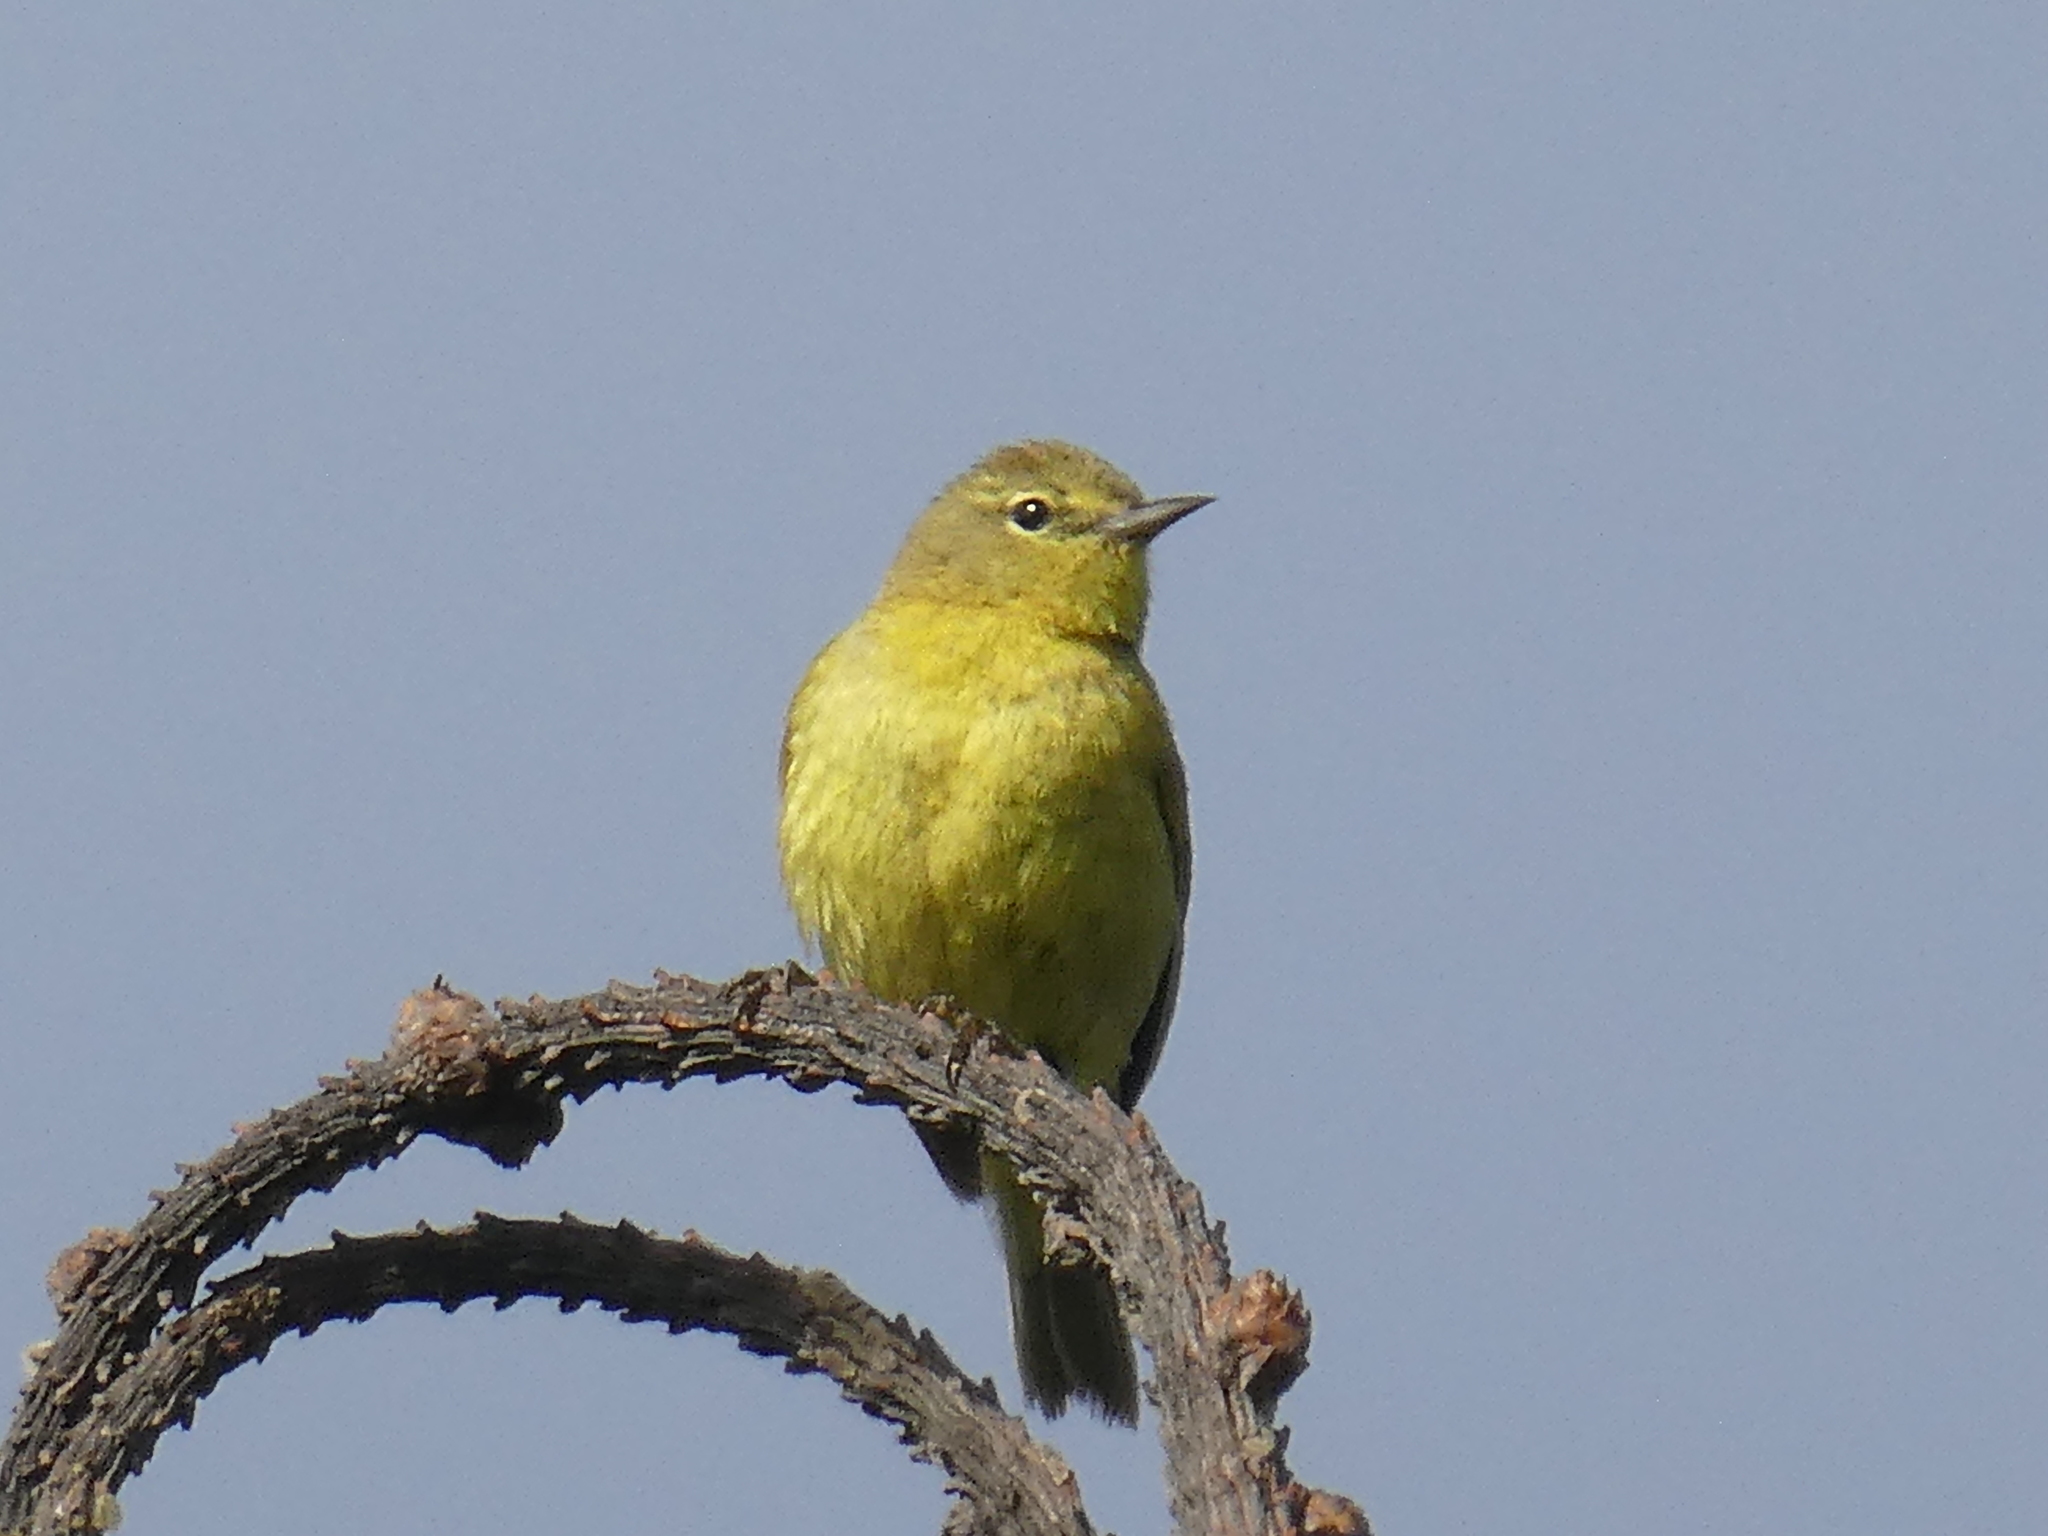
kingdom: Animalia
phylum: Chordata
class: Aves
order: Passeriformes
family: Parulidae
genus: Leiothlypis
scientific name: Leiothlypis celata
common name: Orange-crowned warbler
